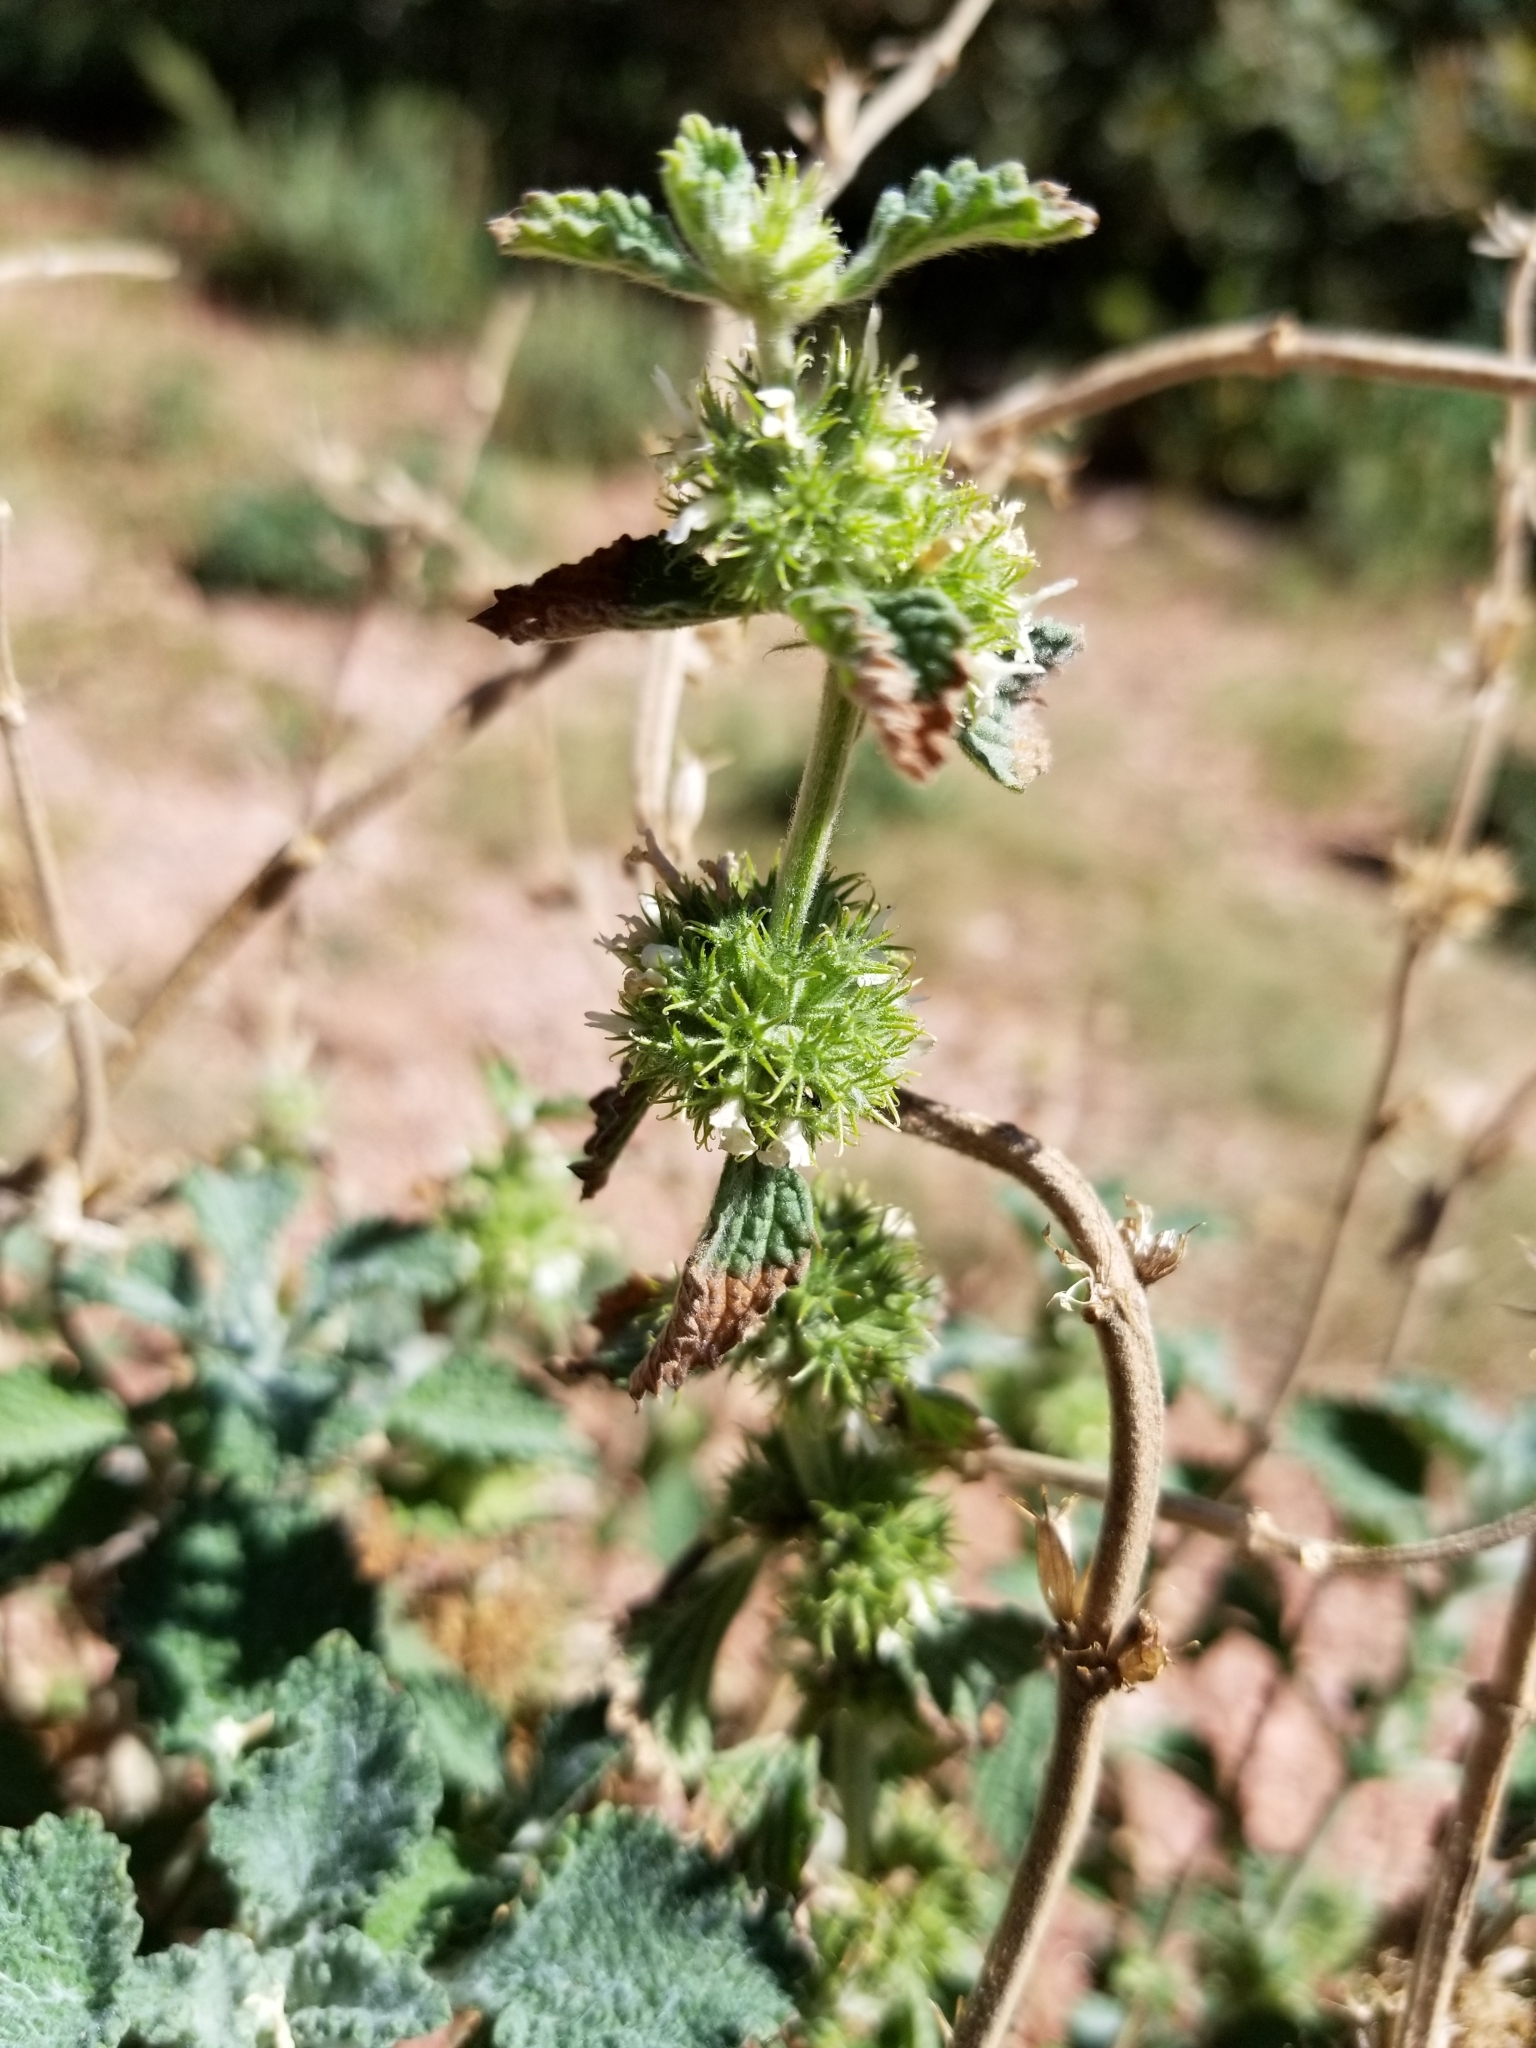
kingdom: Plantae
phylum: Tracheophyta
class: Magnoliopsida
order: Lamiales
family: Lamiaceae
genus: Marrubium
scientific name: Marrubium vulgare
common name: Horehound
